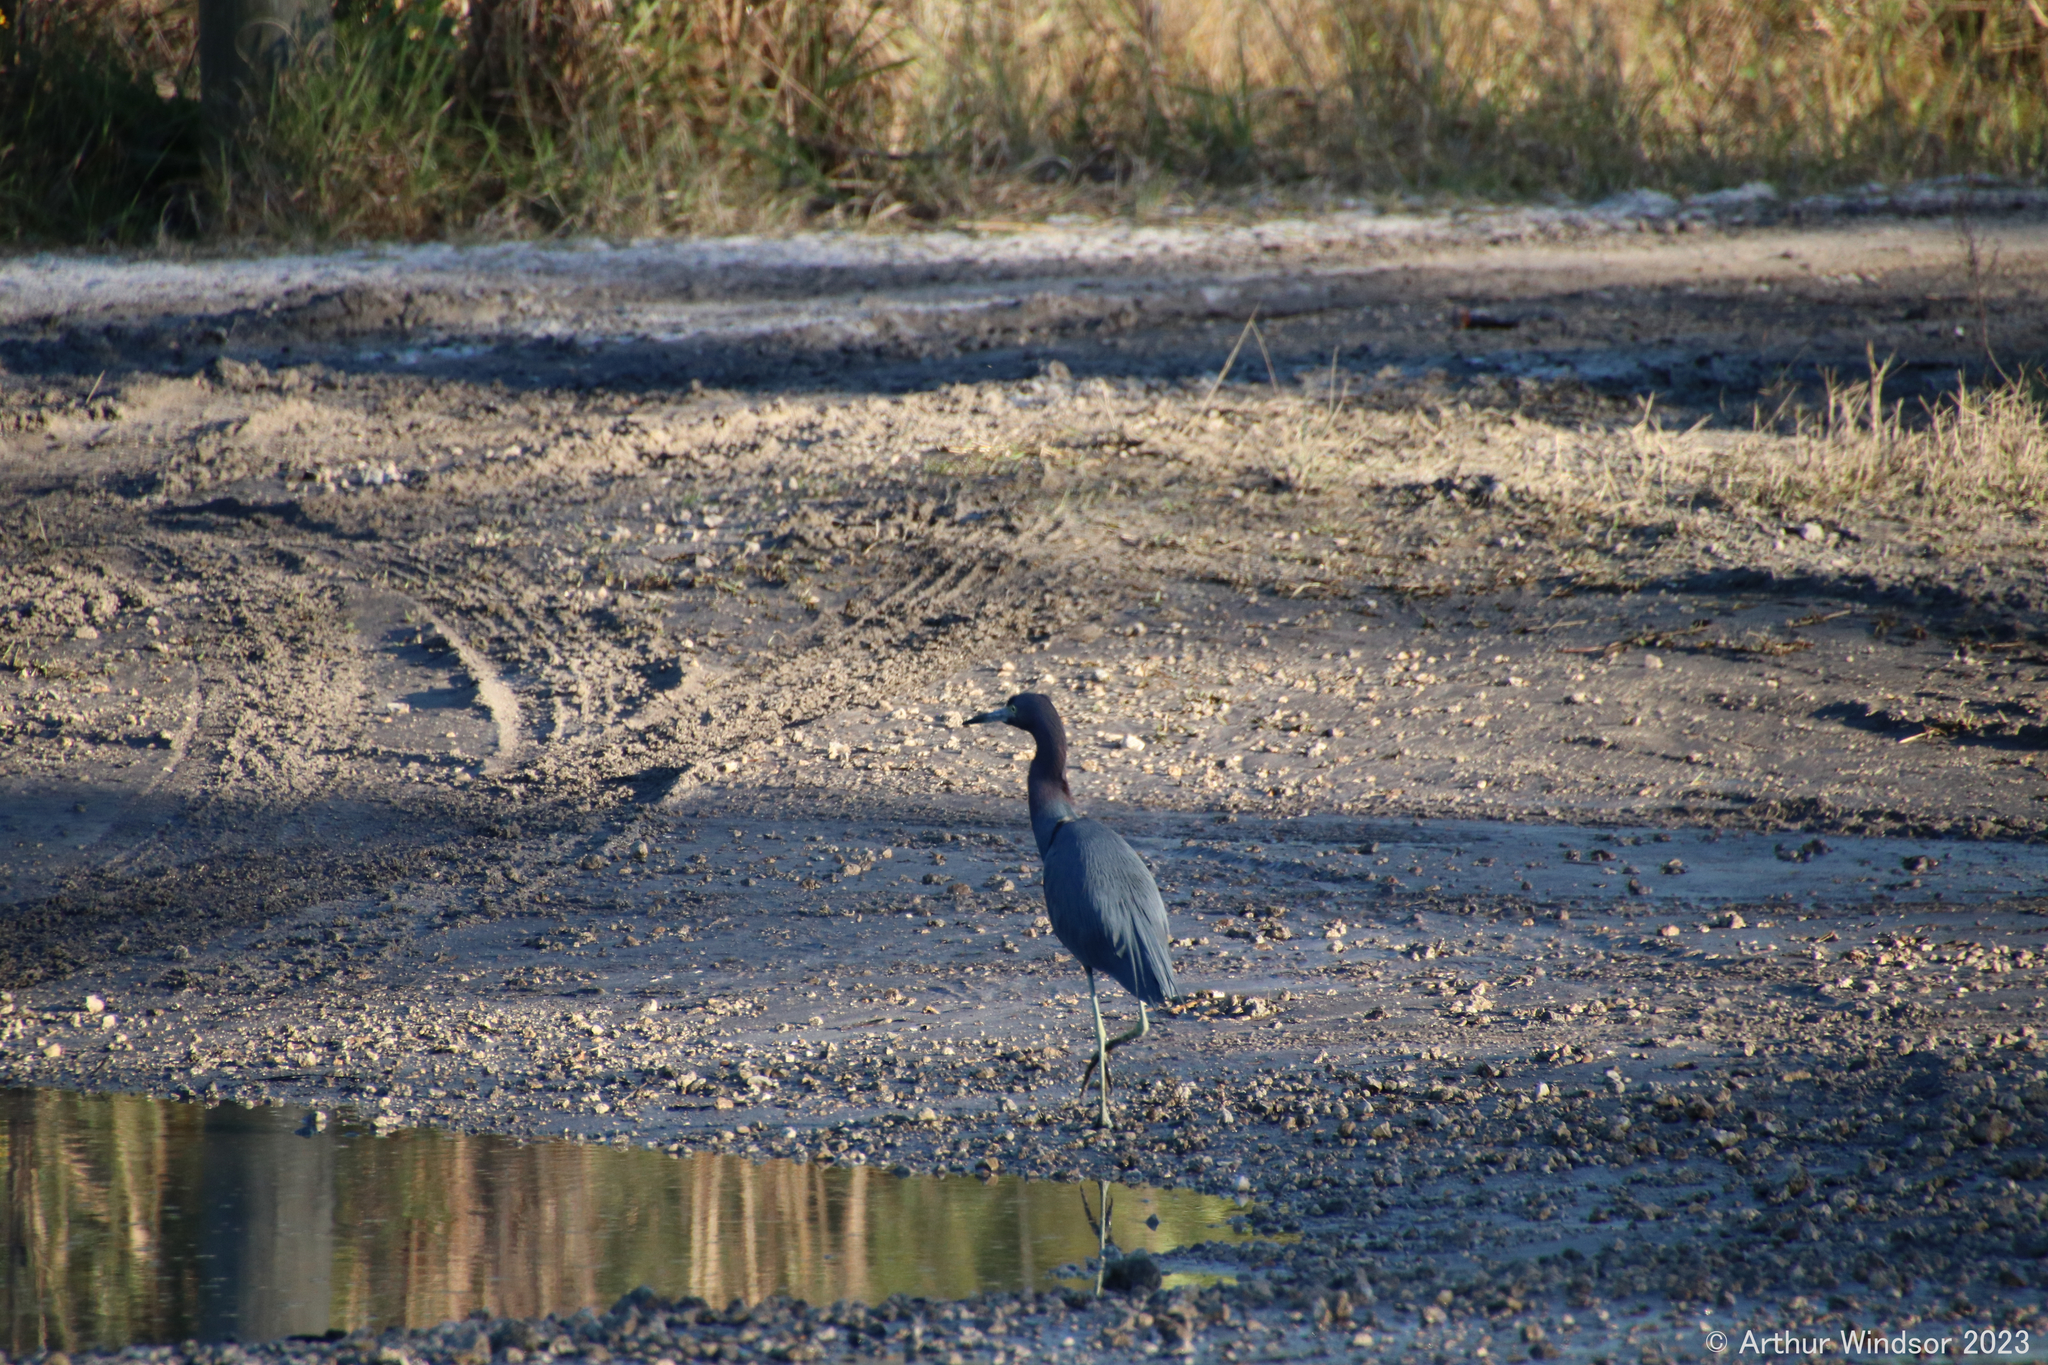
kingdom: Animalia
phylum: Chordata
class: Aves
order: Pelecaniformes
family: Ardeidae
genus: Egretta
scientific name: Egretta caerulea
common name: Little blue heron
